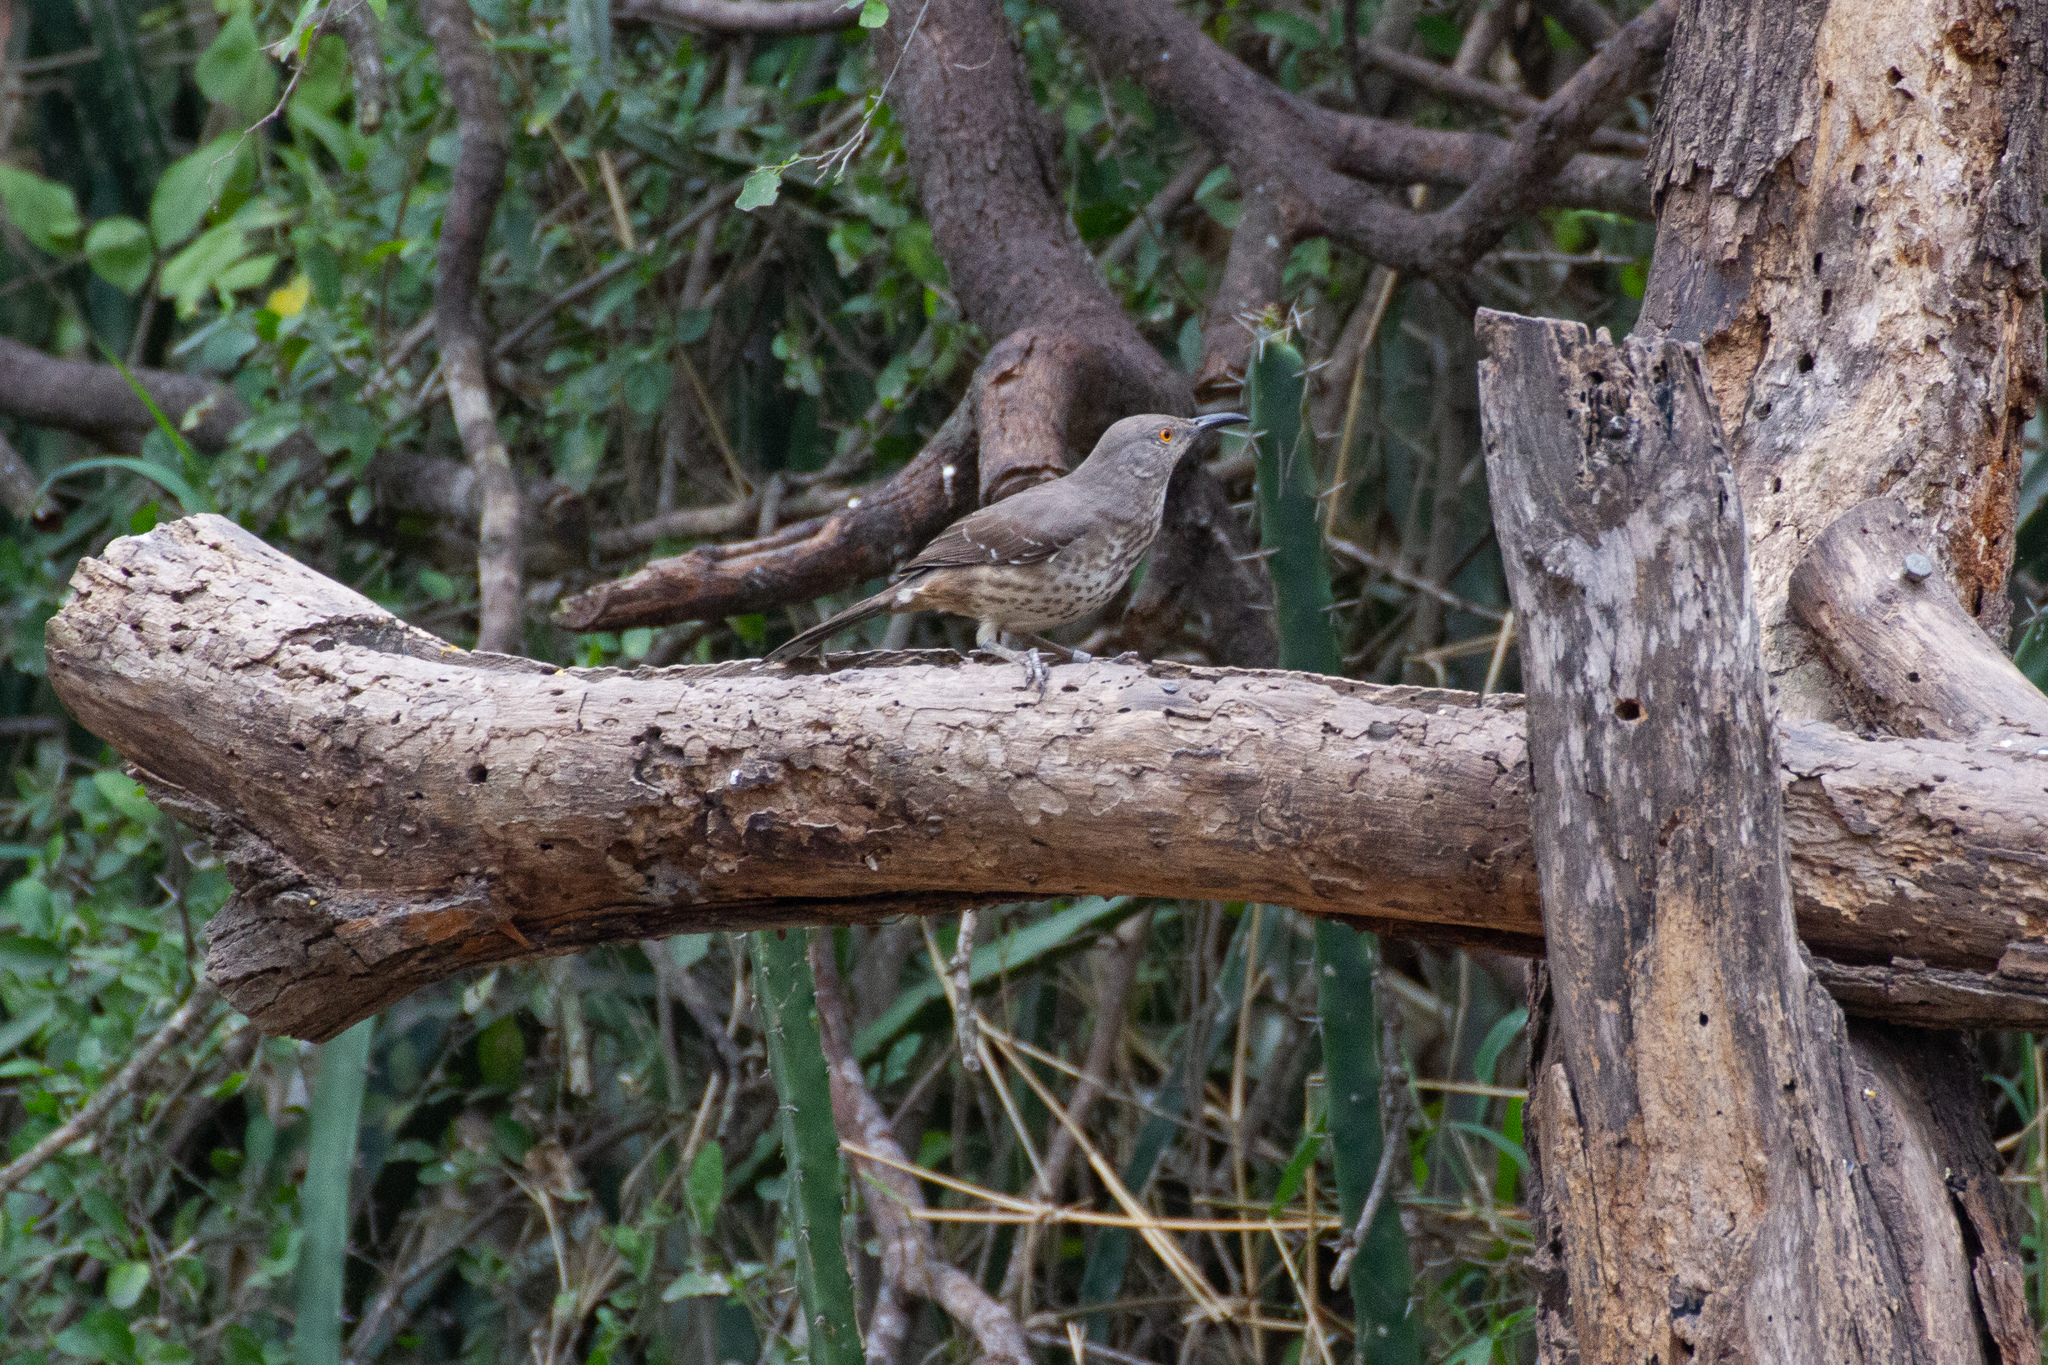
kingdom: Animalia
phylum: Chordata
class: Aves
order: Passeriformes
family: Mimidae
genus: Toxostoma
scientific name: Toxostoma curvirostre
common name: Curve-billed thrasher
